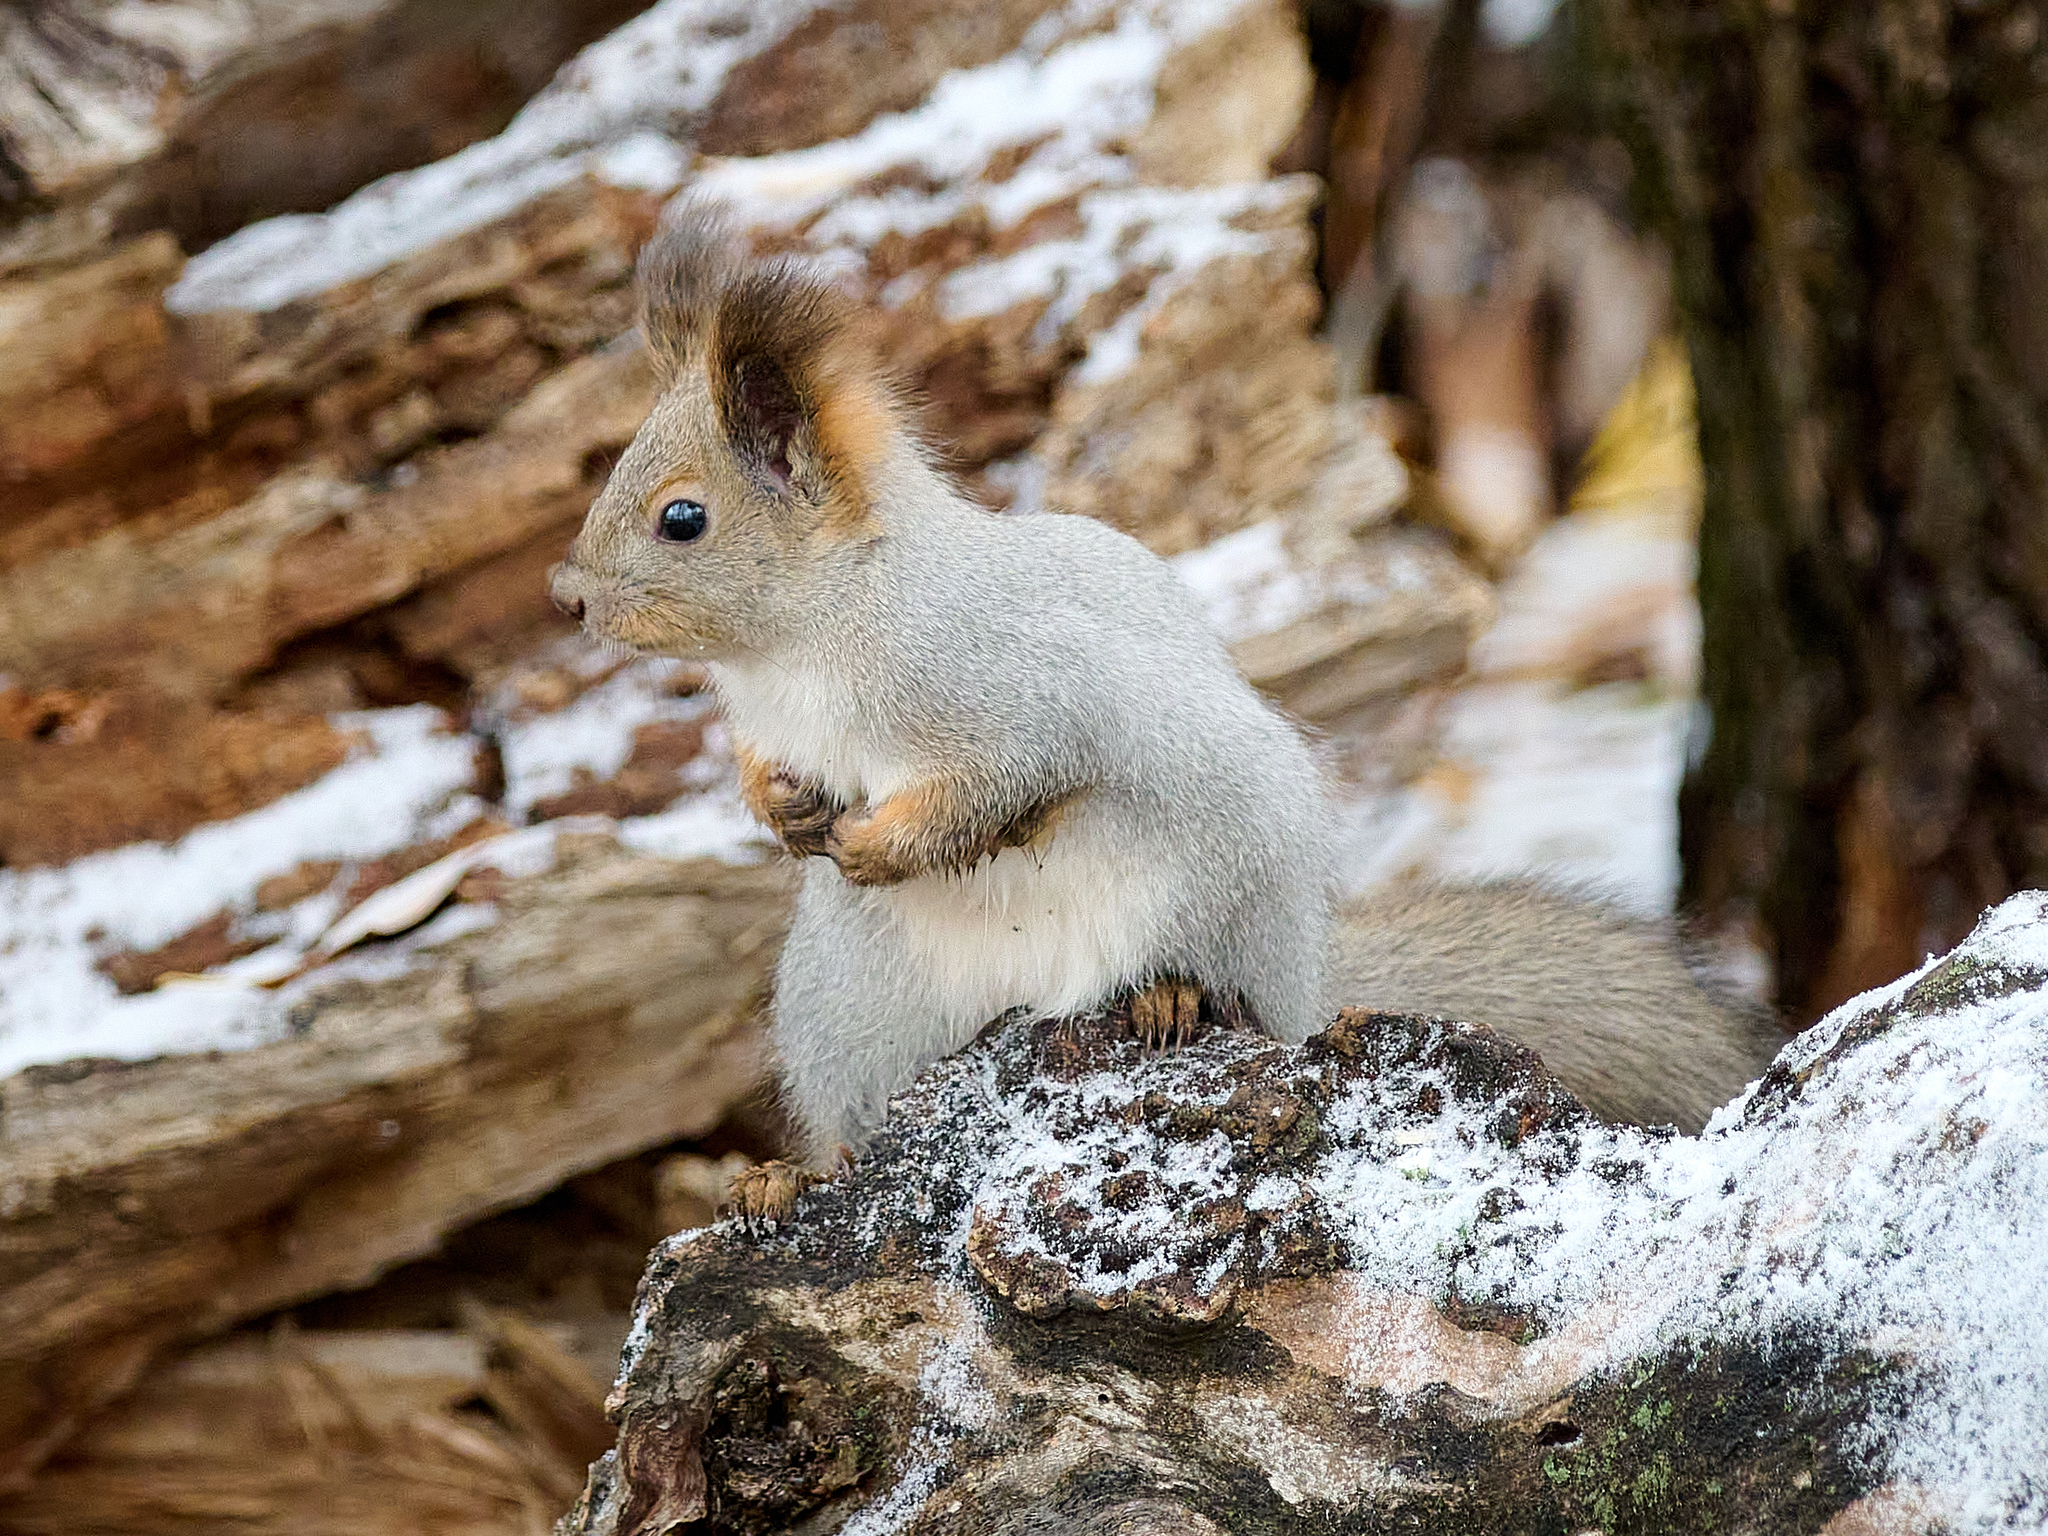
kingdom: Animalia
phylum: Chordata
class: Mammalia
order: Rodentia
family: Sciuridae
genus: Sciurus
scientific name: Sciurus vulgaris
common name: Eurasian red squirrel
